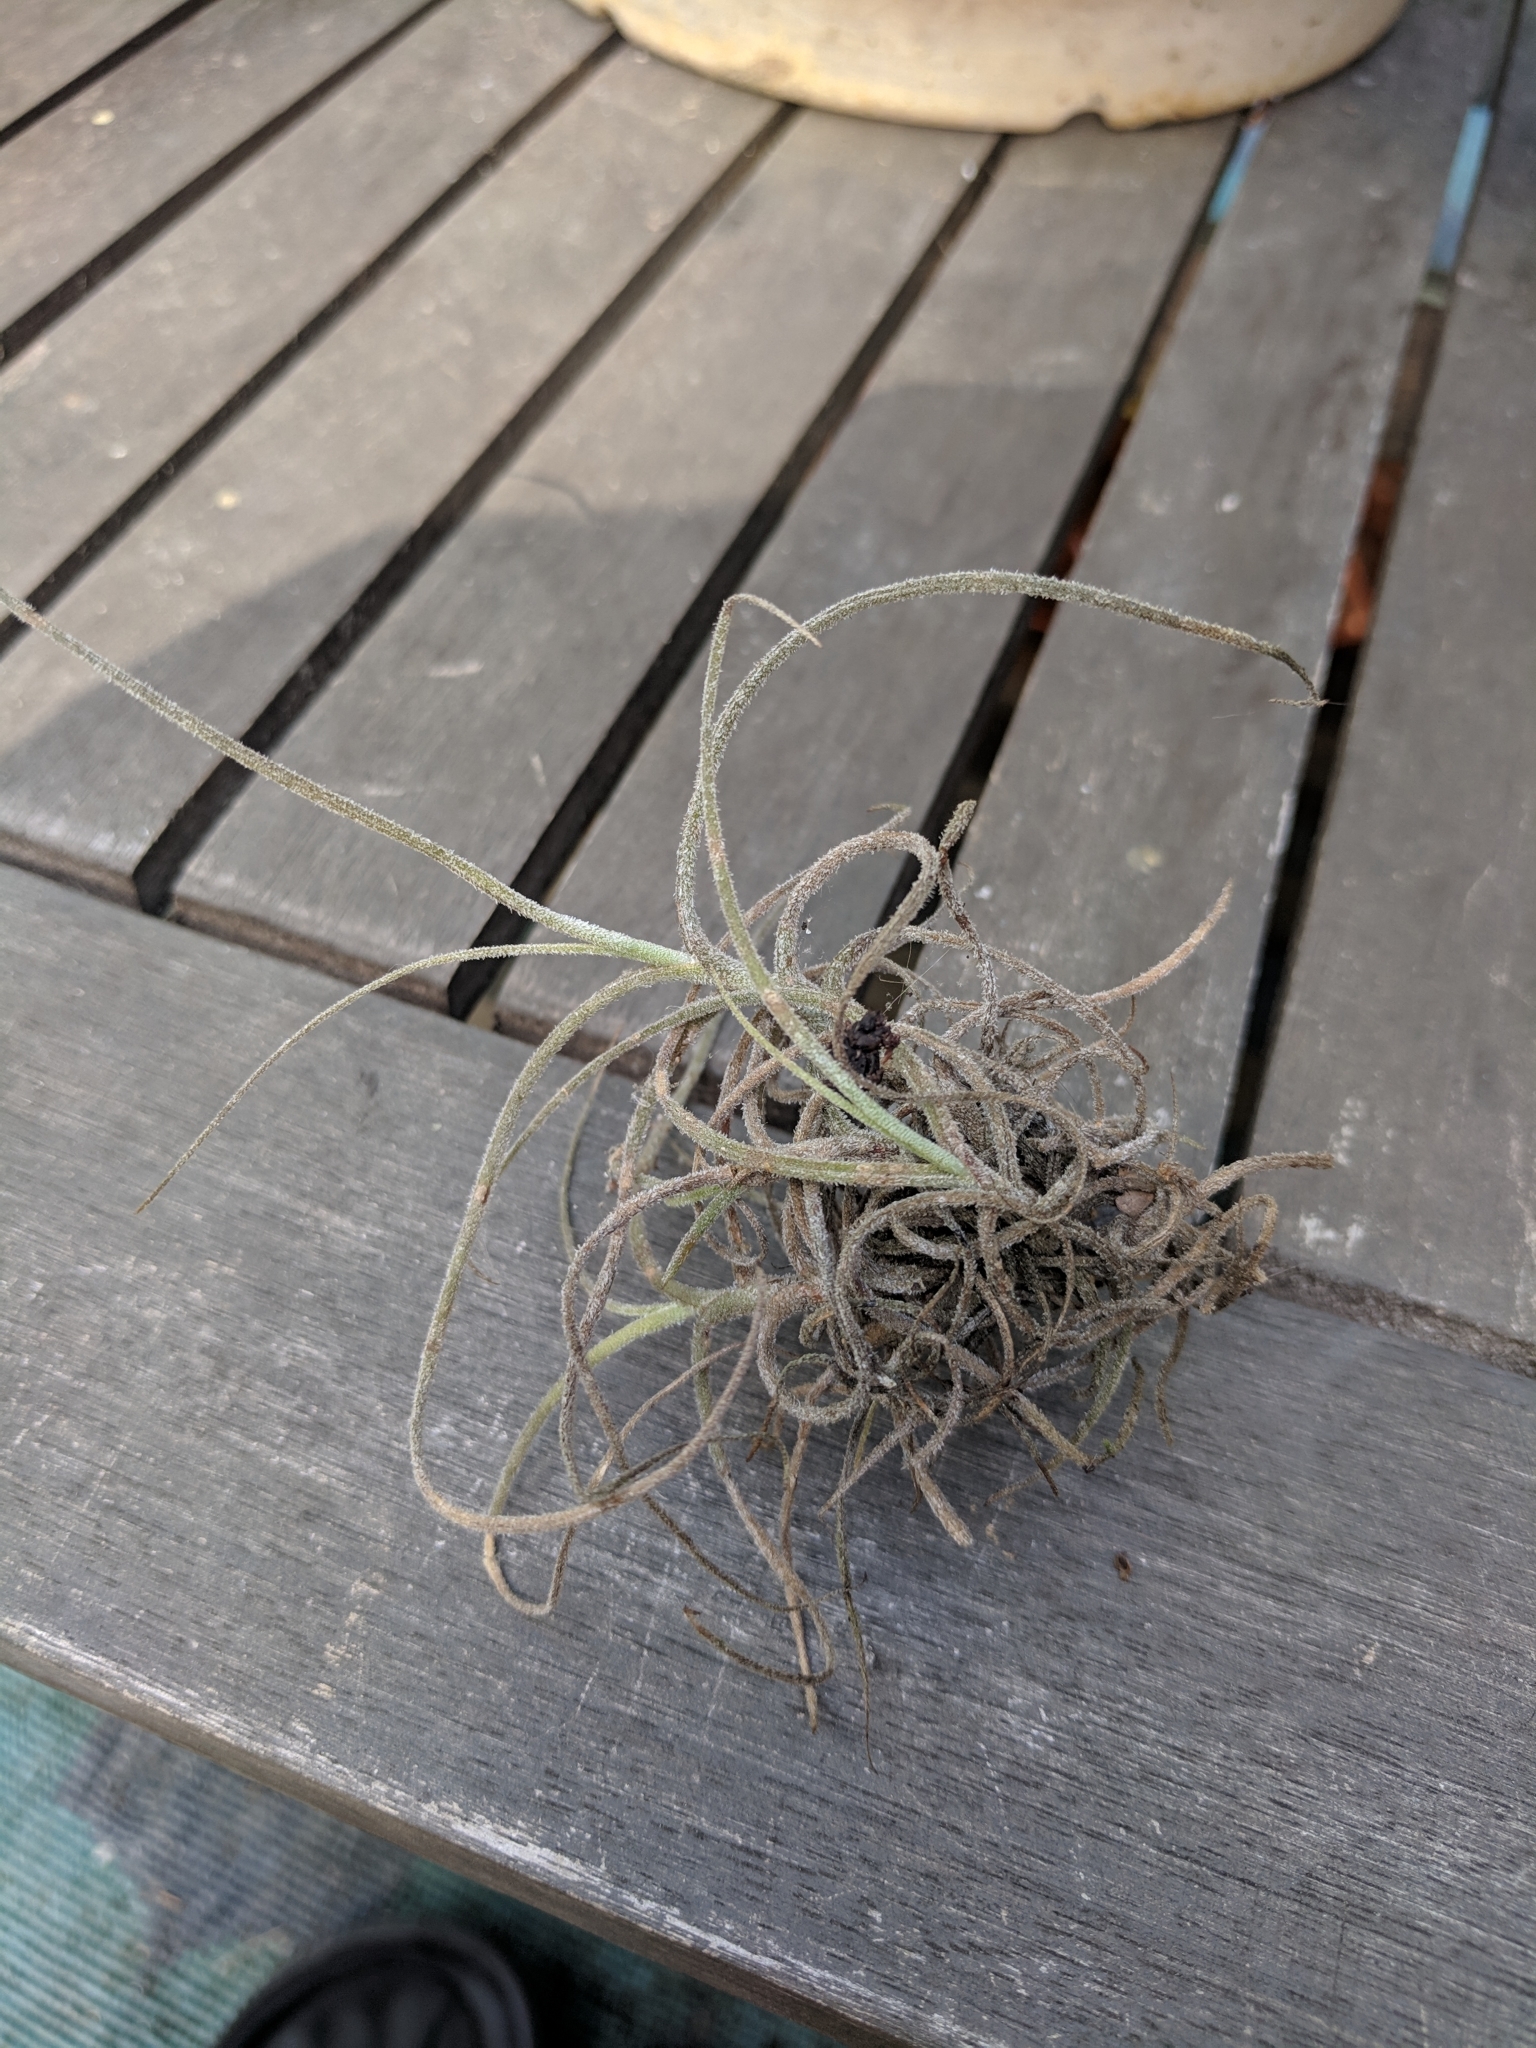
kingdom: Plantae
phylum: Tracheophyta
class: Liliopsida
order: Poales
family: Bromeliaceae
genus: Tillandsia
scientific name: Tillandsia recurvata
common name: Small ballmoss
